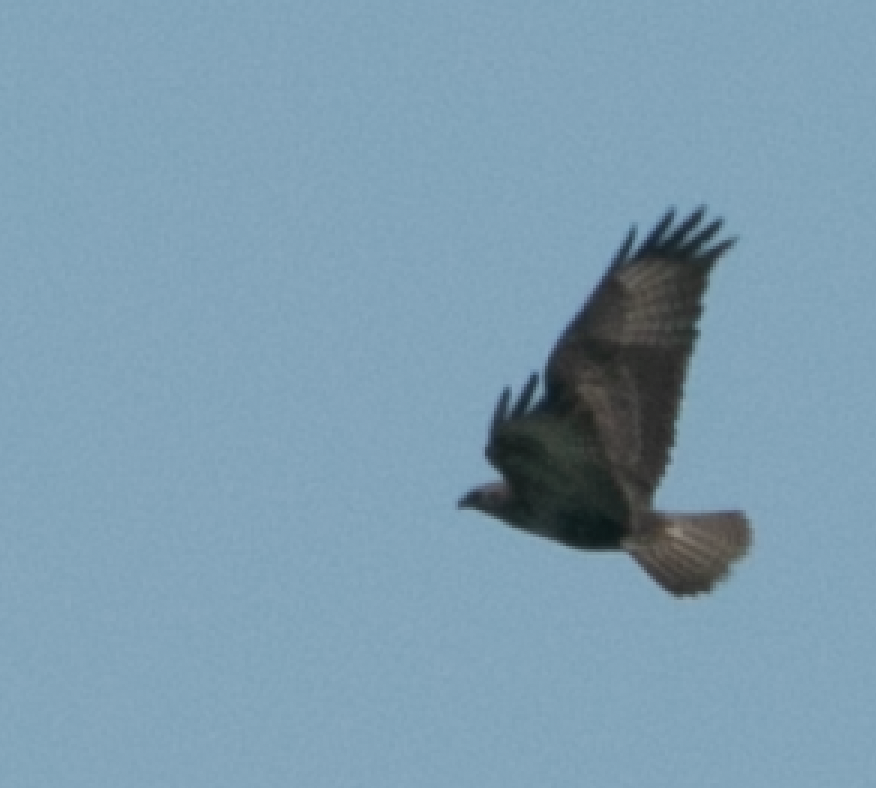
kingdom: Animalia
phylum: Chordata
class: Aves
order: Accipitriformes
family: Accipitridae
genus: Buteo
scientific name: Buteo buteo
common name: Common buzzard
